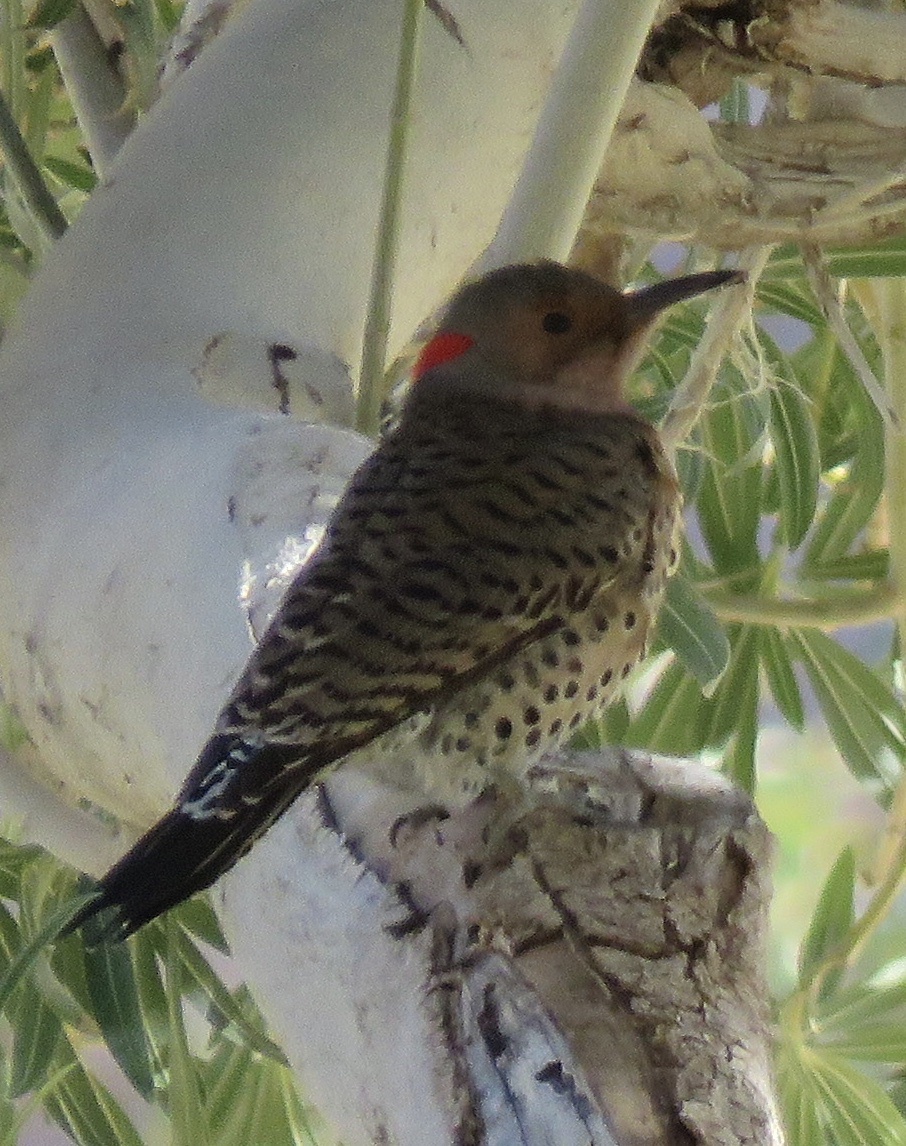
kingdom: Animalia
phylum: Chordata
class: Aves
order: Piciformes
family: Picidae
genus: Colaptes
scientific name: Colaptes auratus
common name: Northern flicker
